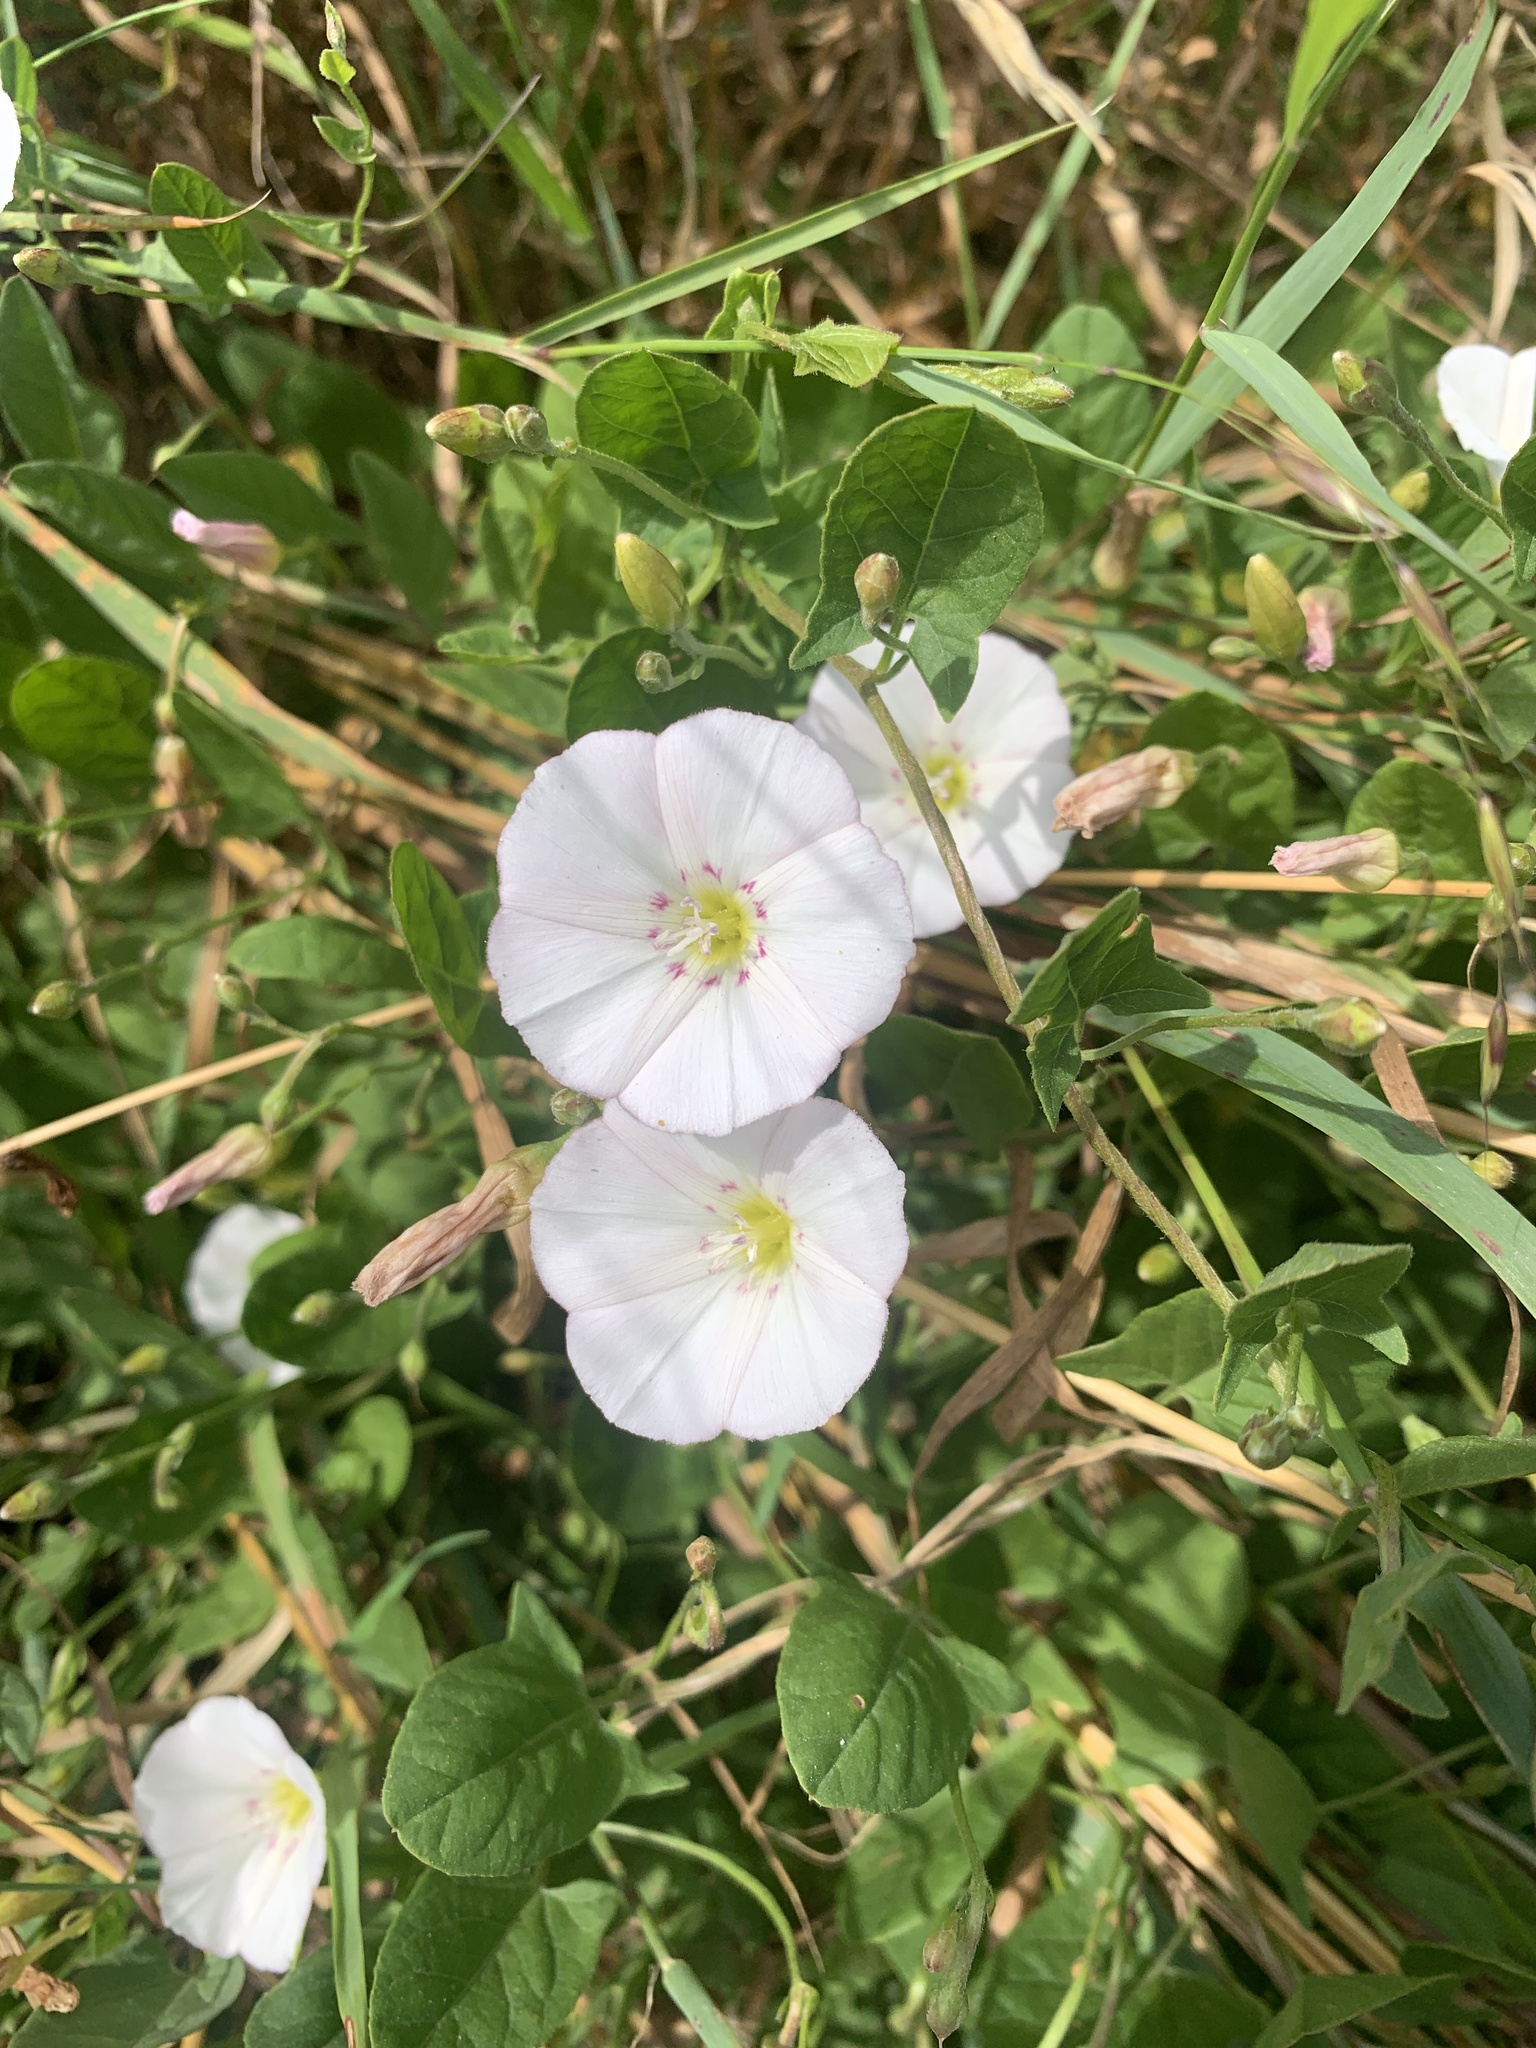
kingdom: Plantae
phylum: Tracheophyta
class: Magnoliopsida
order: Solanales
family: Convolvulaceae
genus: Convolvulus
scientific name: Convolvulus arvensis
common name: Field bindweed
